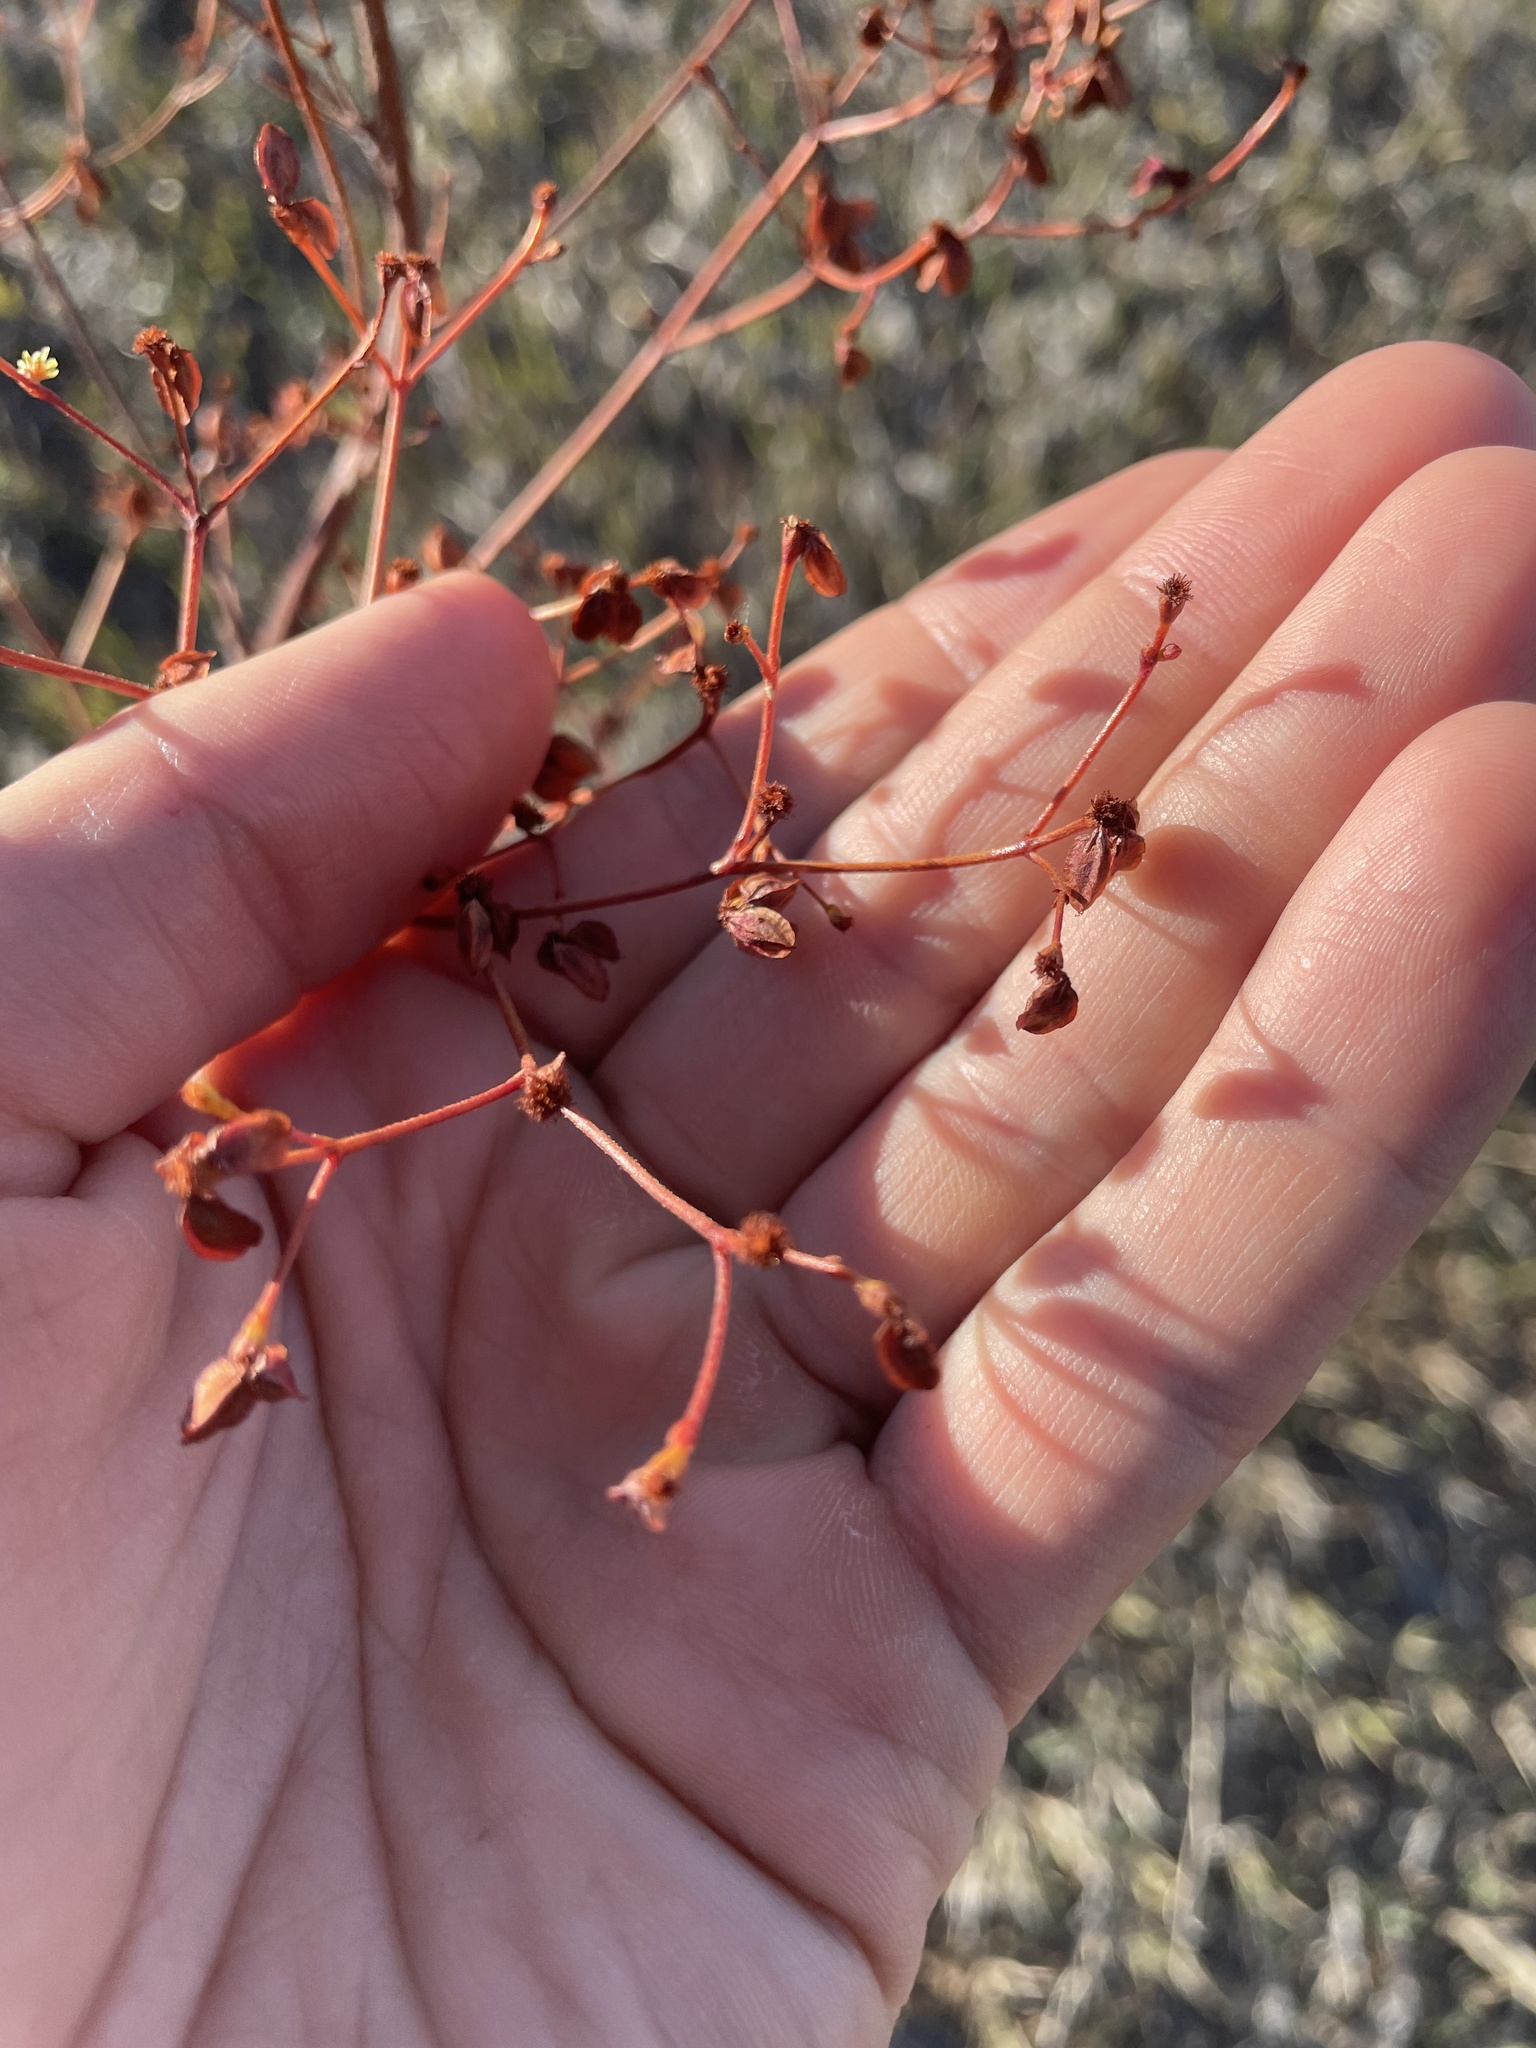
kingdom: Plantae
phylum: Tracheophyta
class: Magnoliopsida
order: Caryophyllales
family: Polygonaceae
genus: Eriogonum
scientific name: Eriogonum alatum
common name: Winged eriogonum
